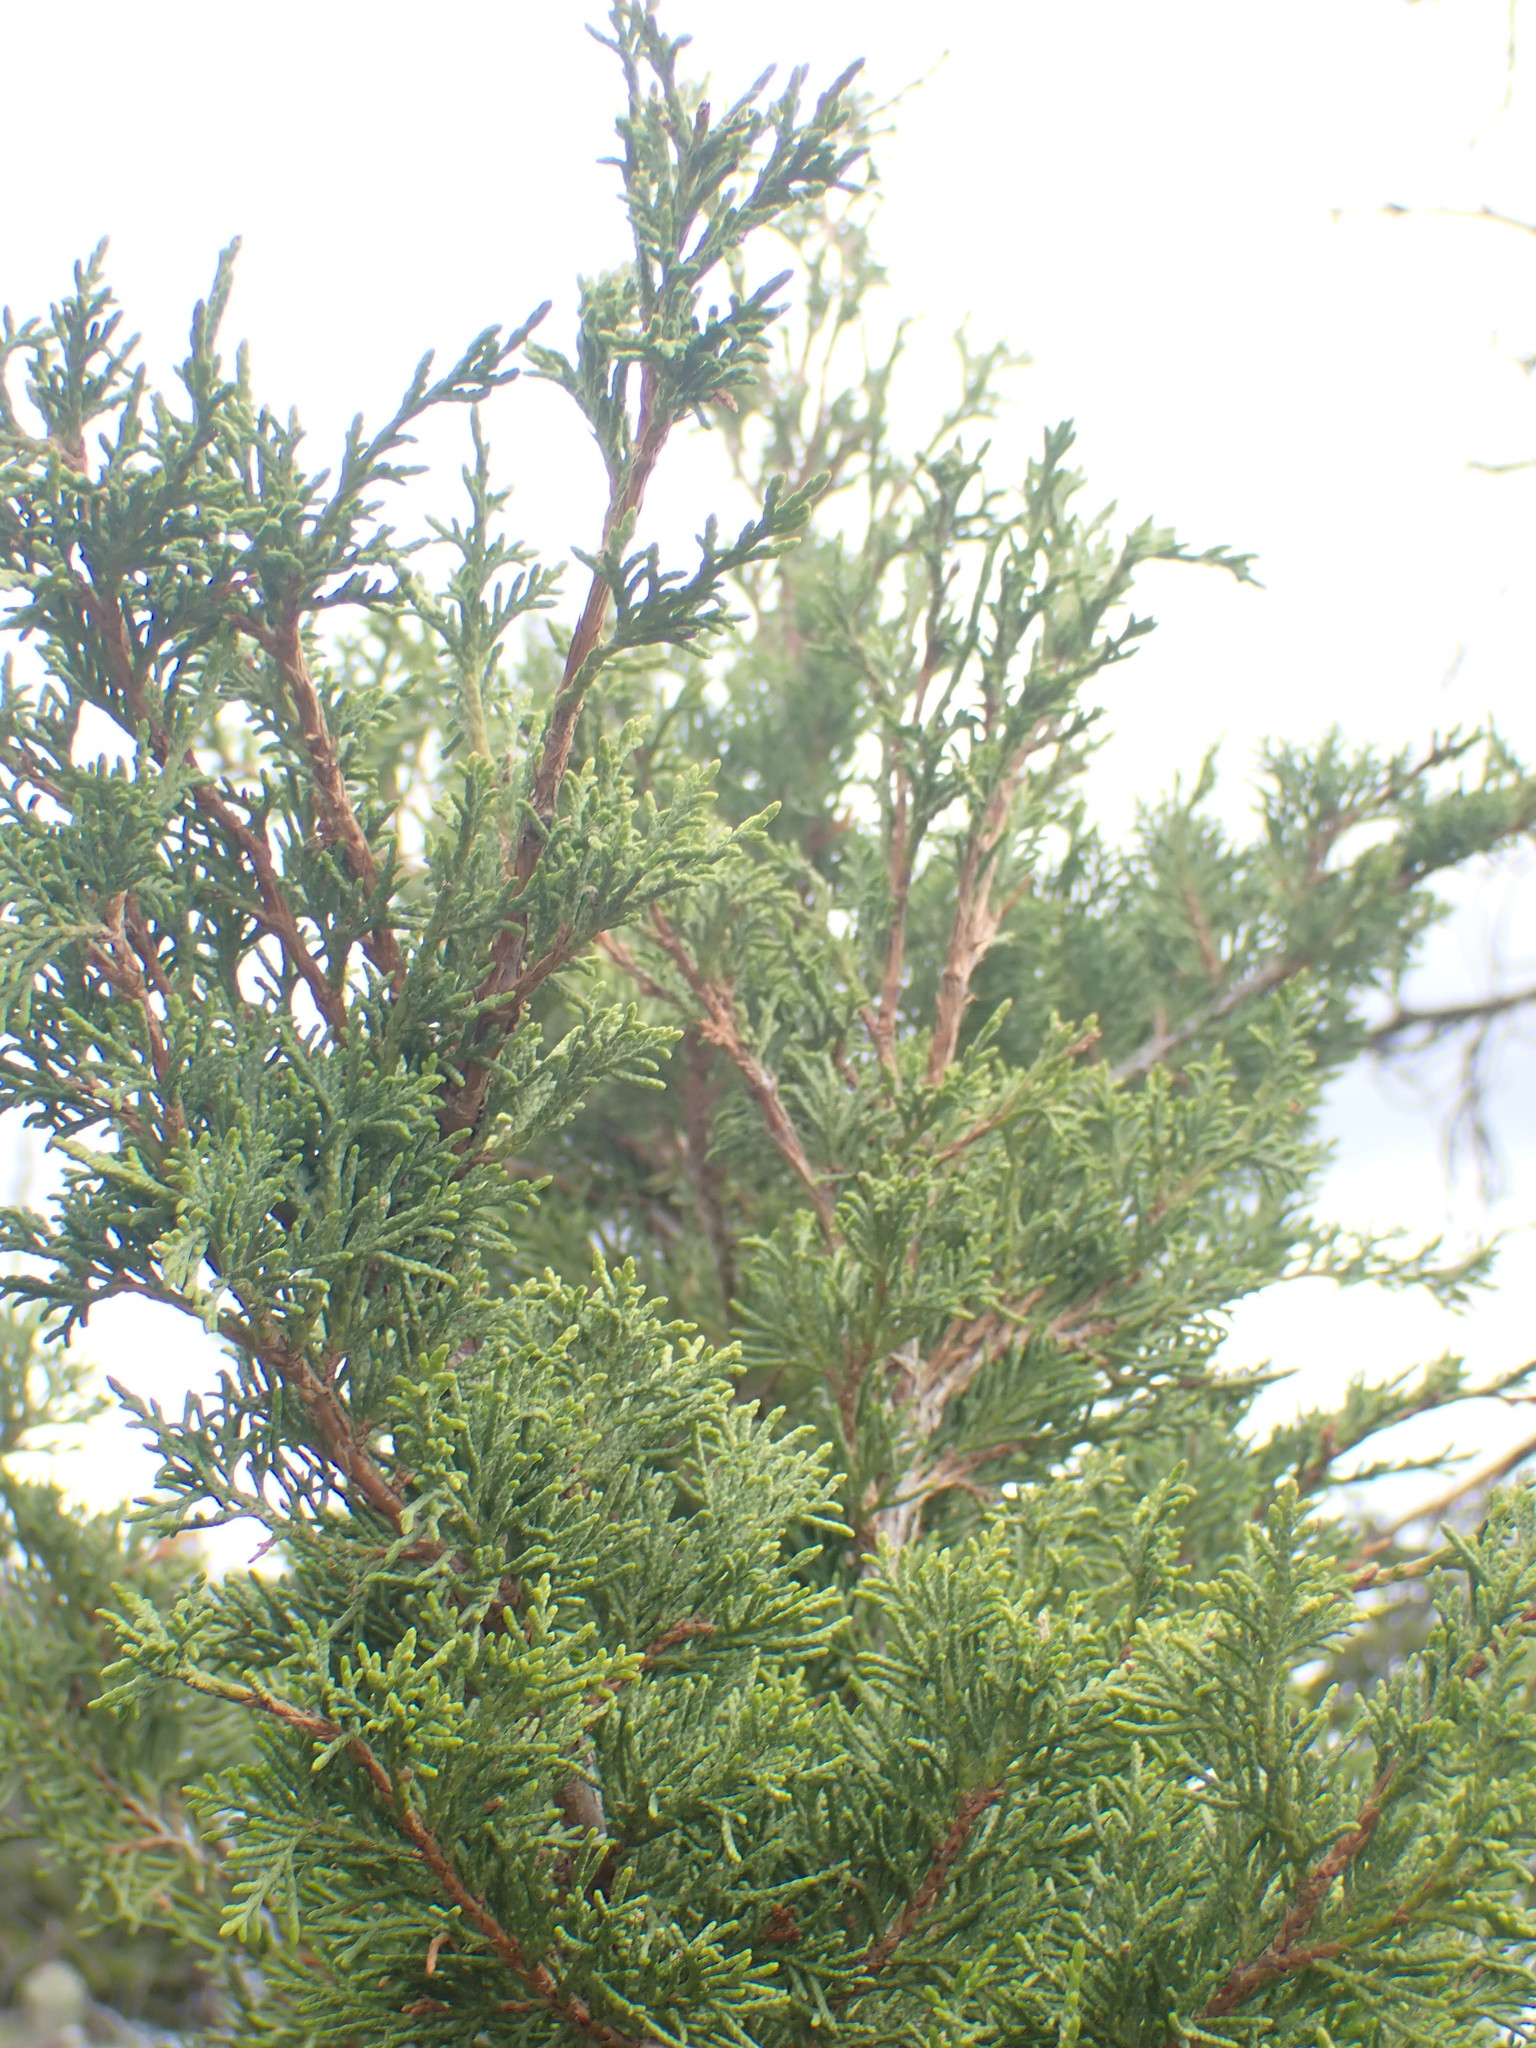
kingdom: Plantae
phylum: Tracheophyta
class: Pinopsida
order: Pinales
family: Cupressaceae
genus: Juniperus
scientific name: Juniperus scopulorum
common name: Rocky mountain juniper
